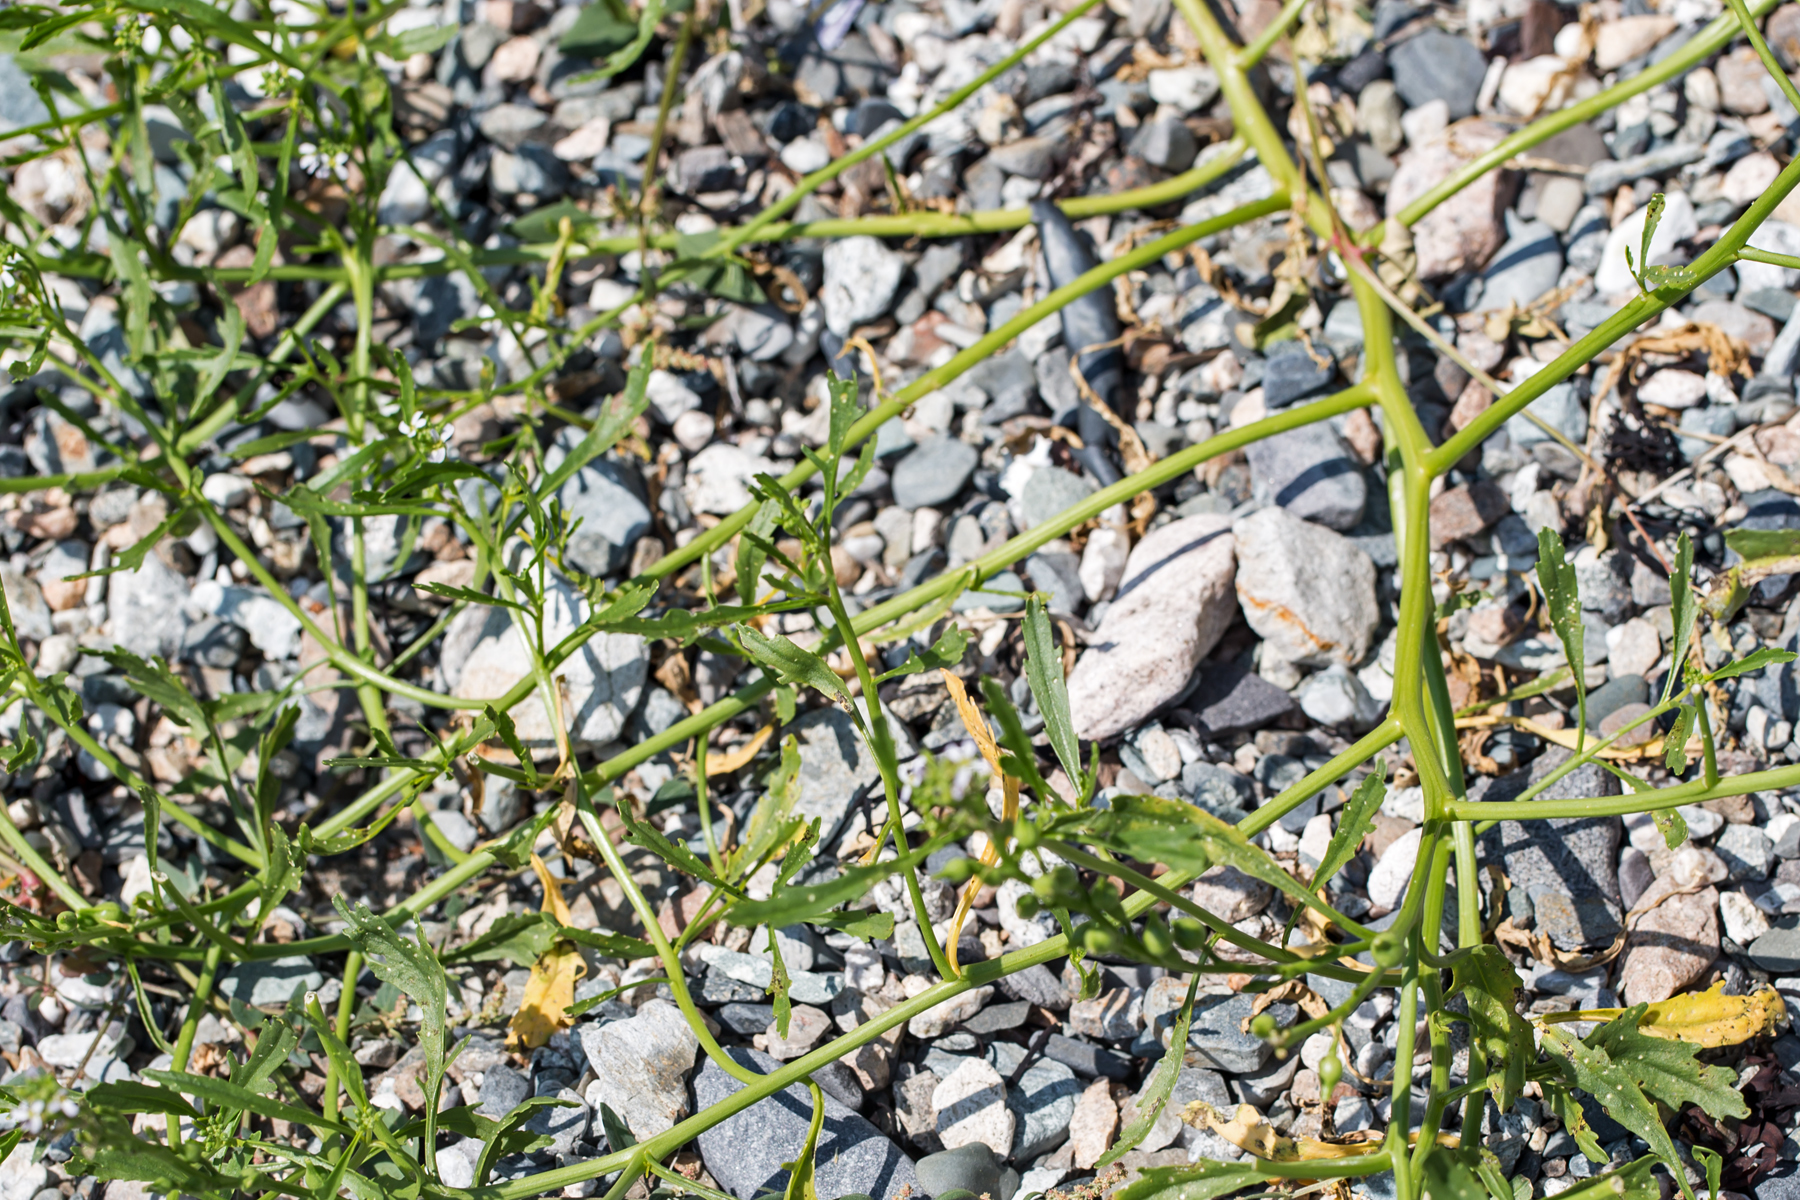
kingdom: Plantae
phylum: Tracheophyta
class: Magnoliopsida
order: Brassicales
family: Brassicaceae
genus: Cakile
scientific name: Cakile edentula
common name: American sea rocket
